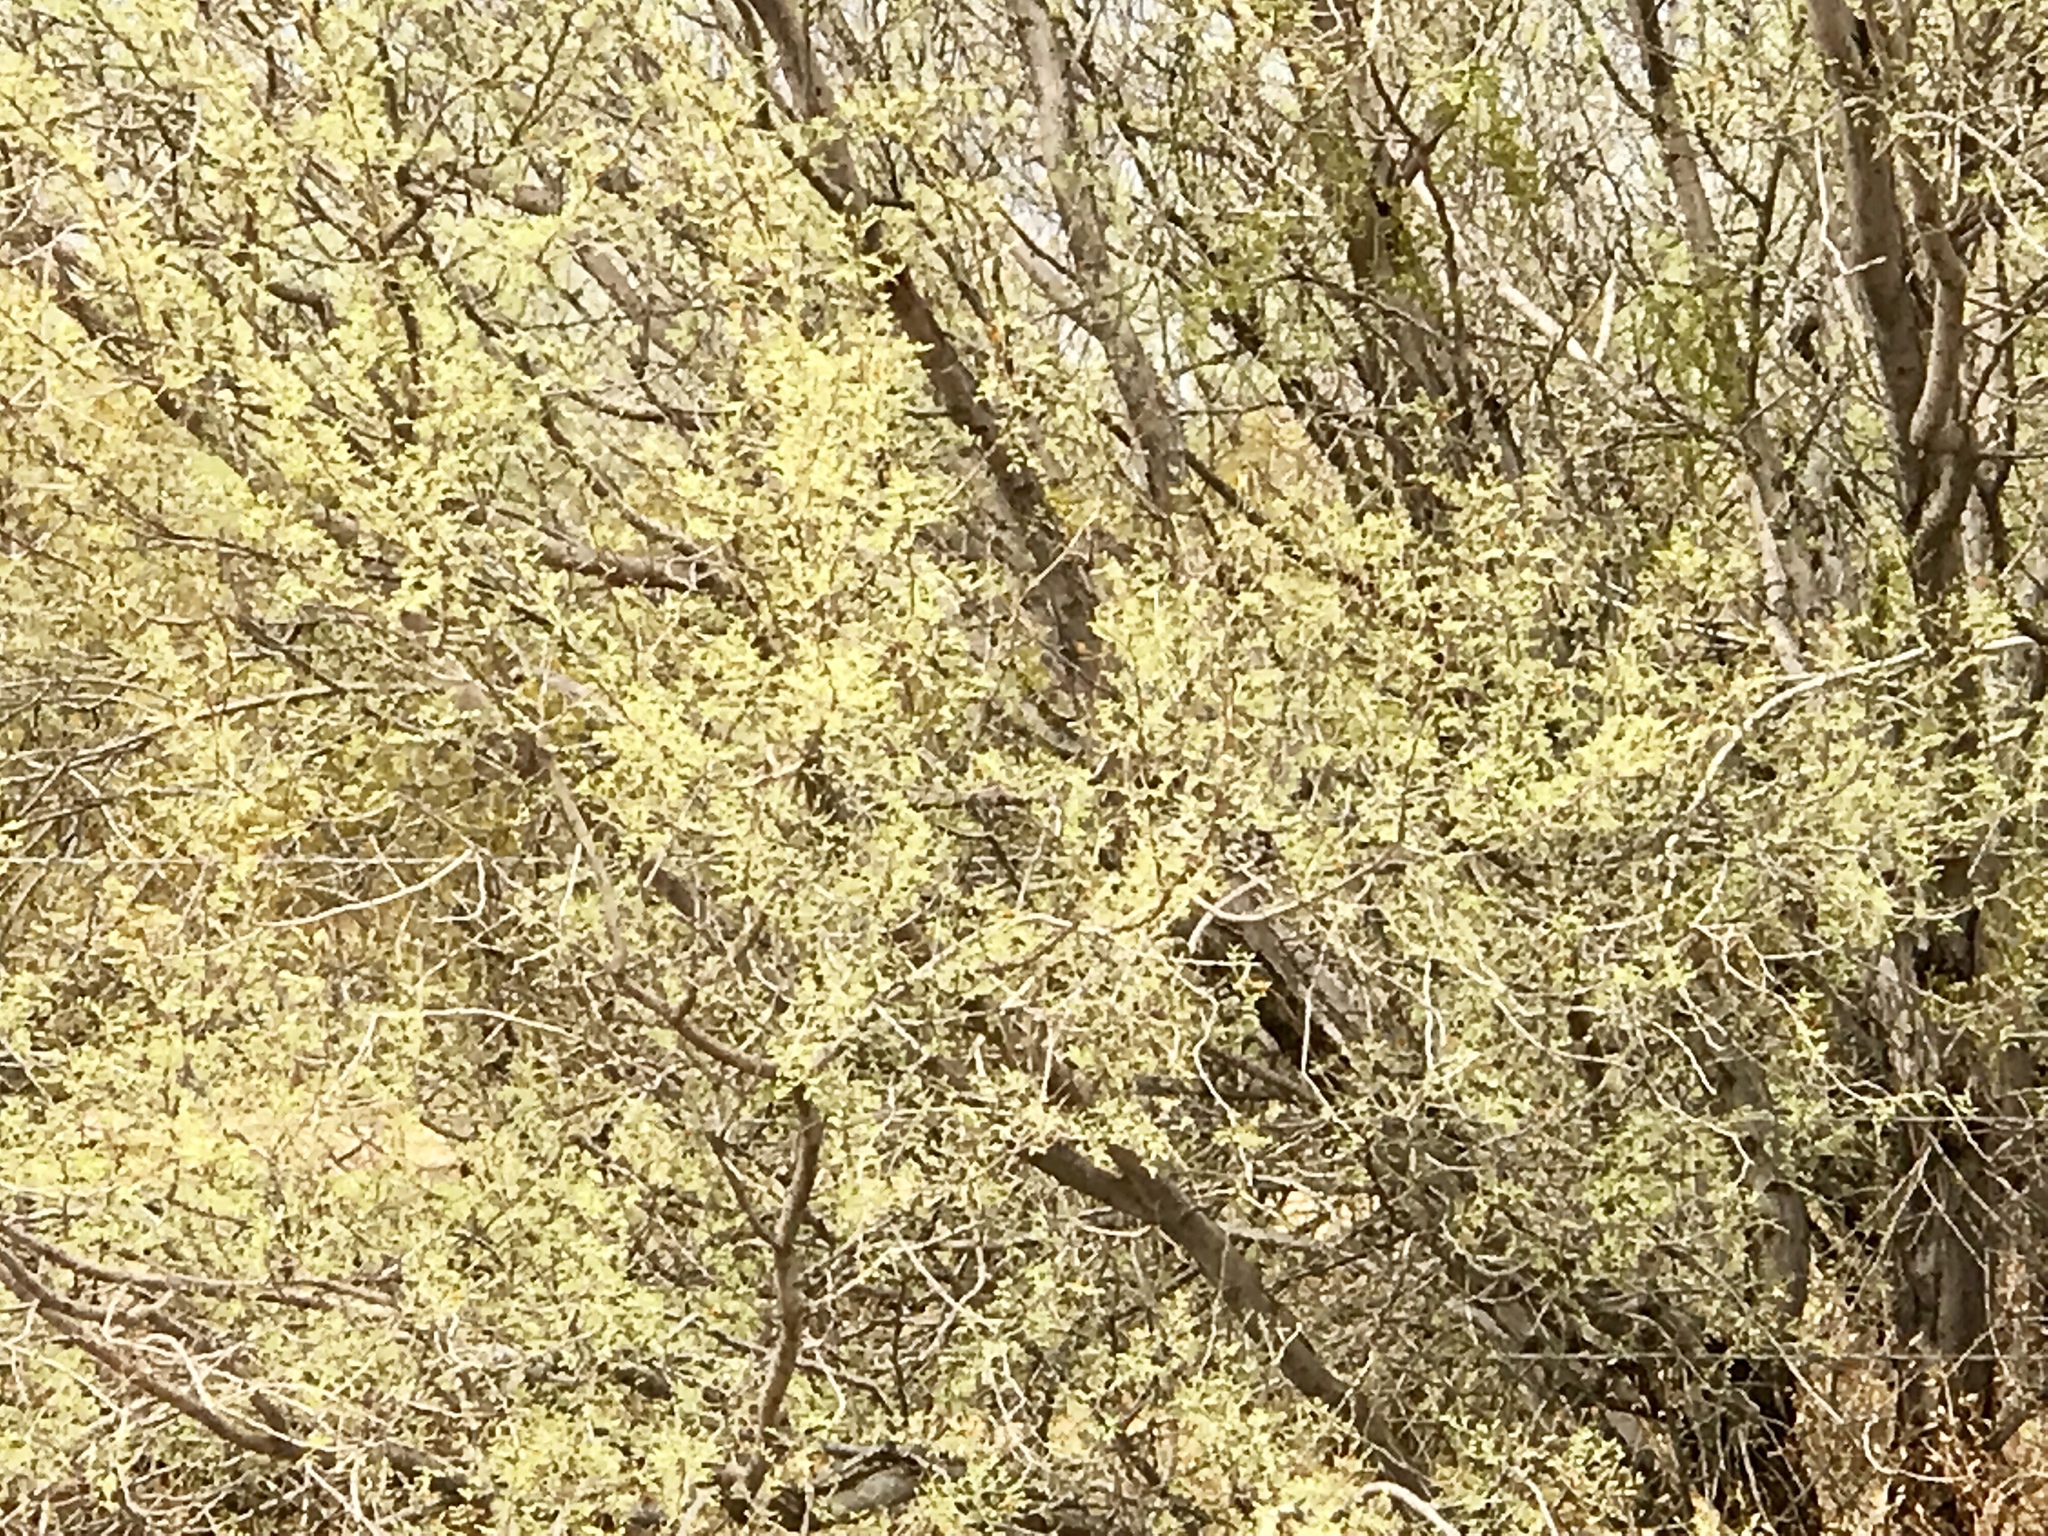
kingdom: Plantae
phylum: Tracheophyta
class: Magnoliopsida
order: Fabales
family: Fabaceae
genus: Olneya
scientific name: Olneya tesota
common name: Desert ironwood
